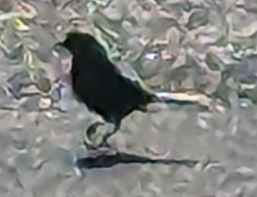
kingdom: Animalia
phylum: Chordata
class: Aves
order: Passeriformes
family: Icteridae
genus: Quiscalus
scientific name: Quiscalus major
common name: Boat-tailed grackle
